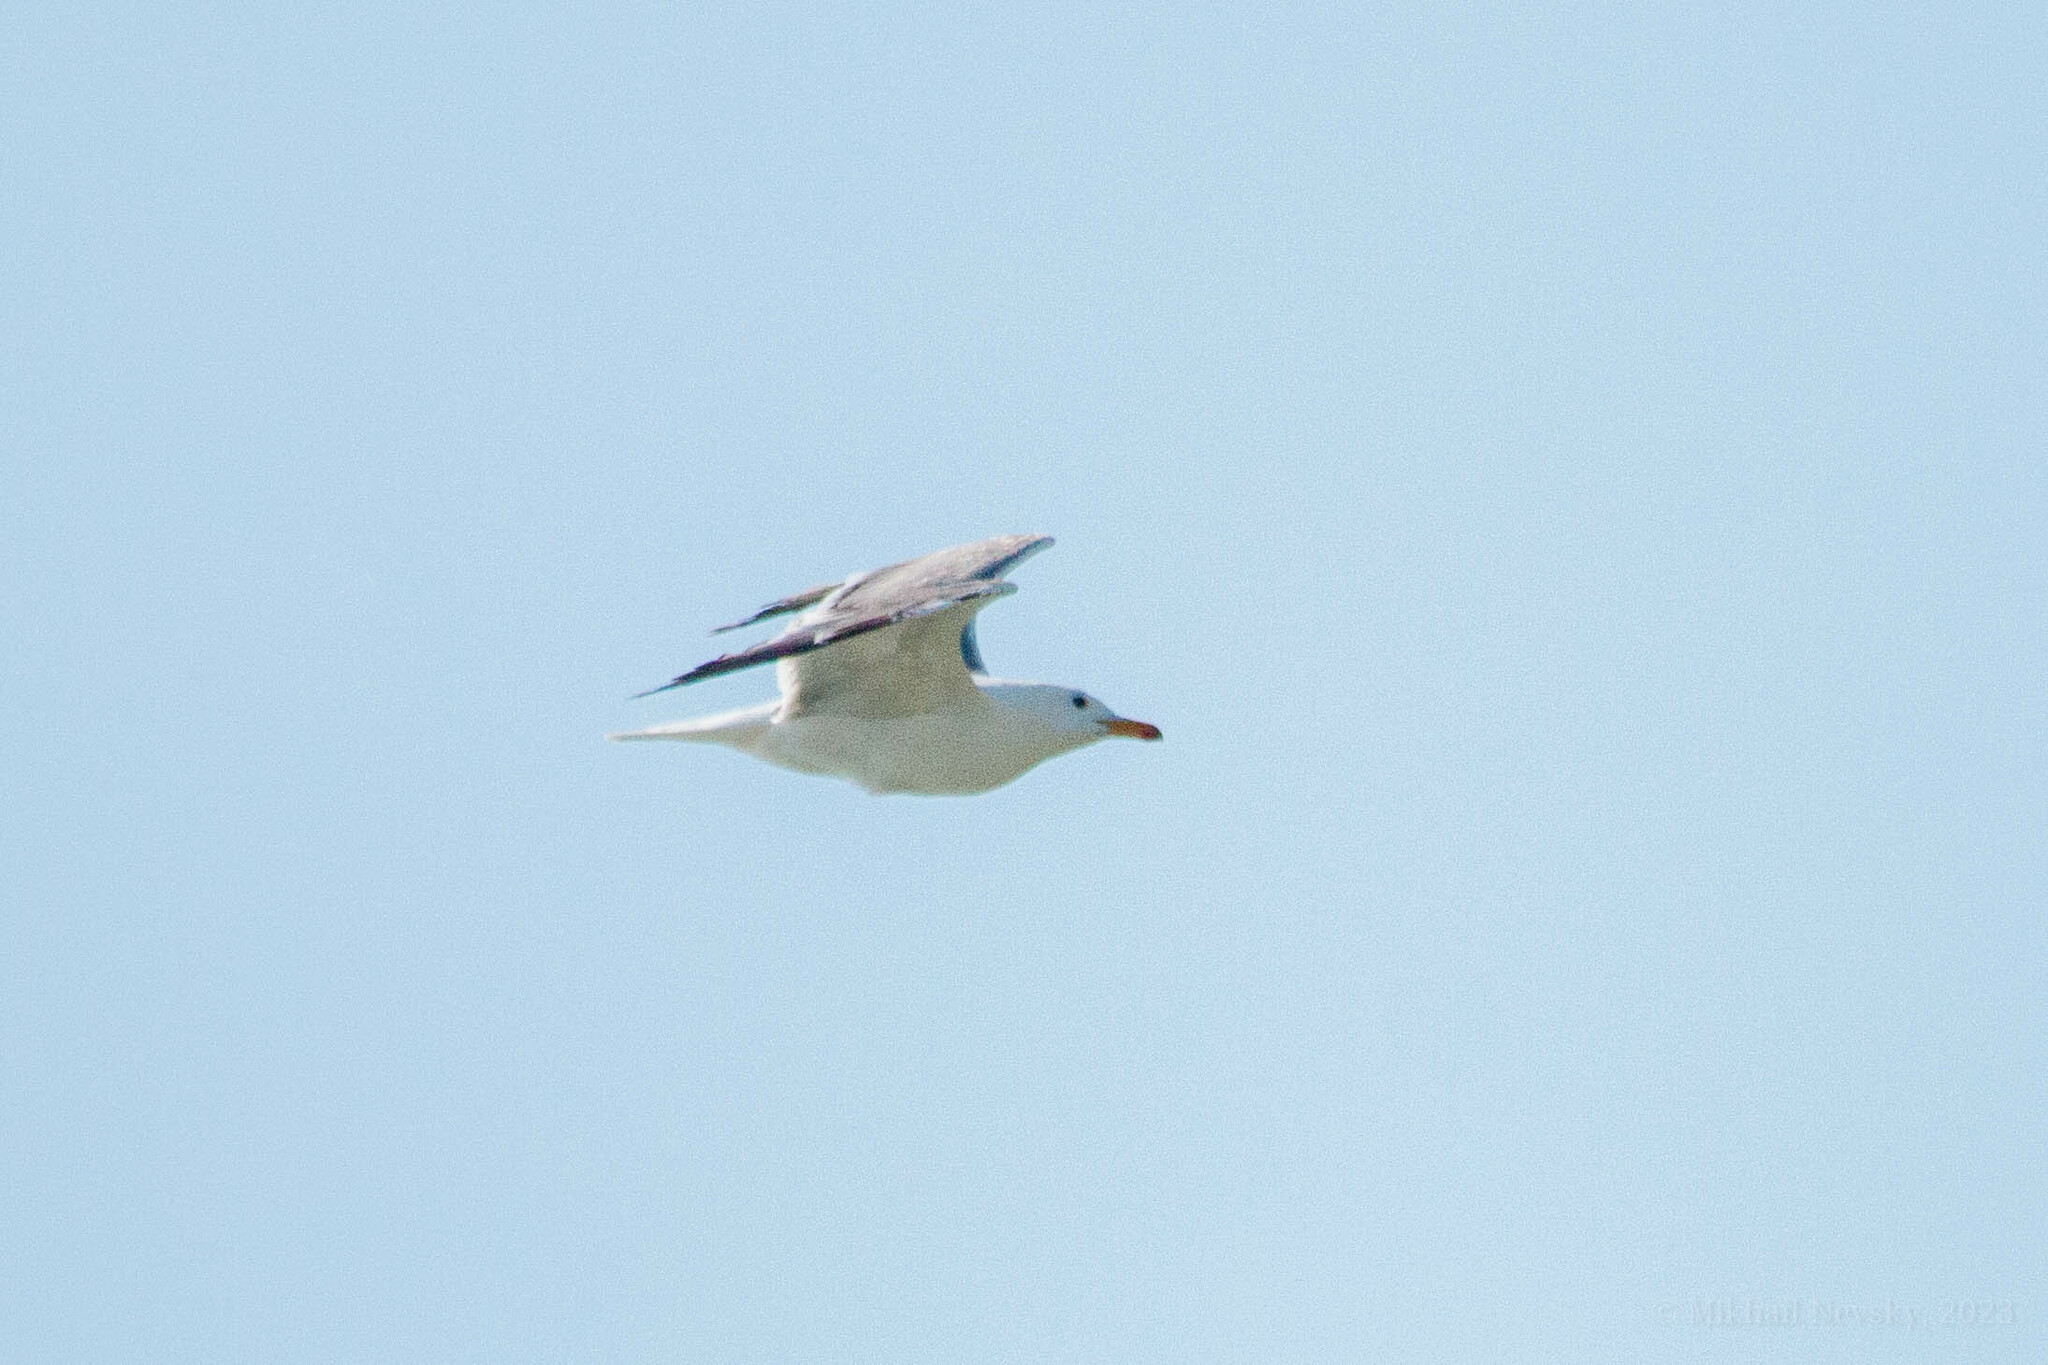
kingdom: Animalia
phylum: Chordata
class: Aves
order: Charadriiformes
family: Laridae
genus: Larus
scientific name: Larus armenicus
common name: Armenian gull
